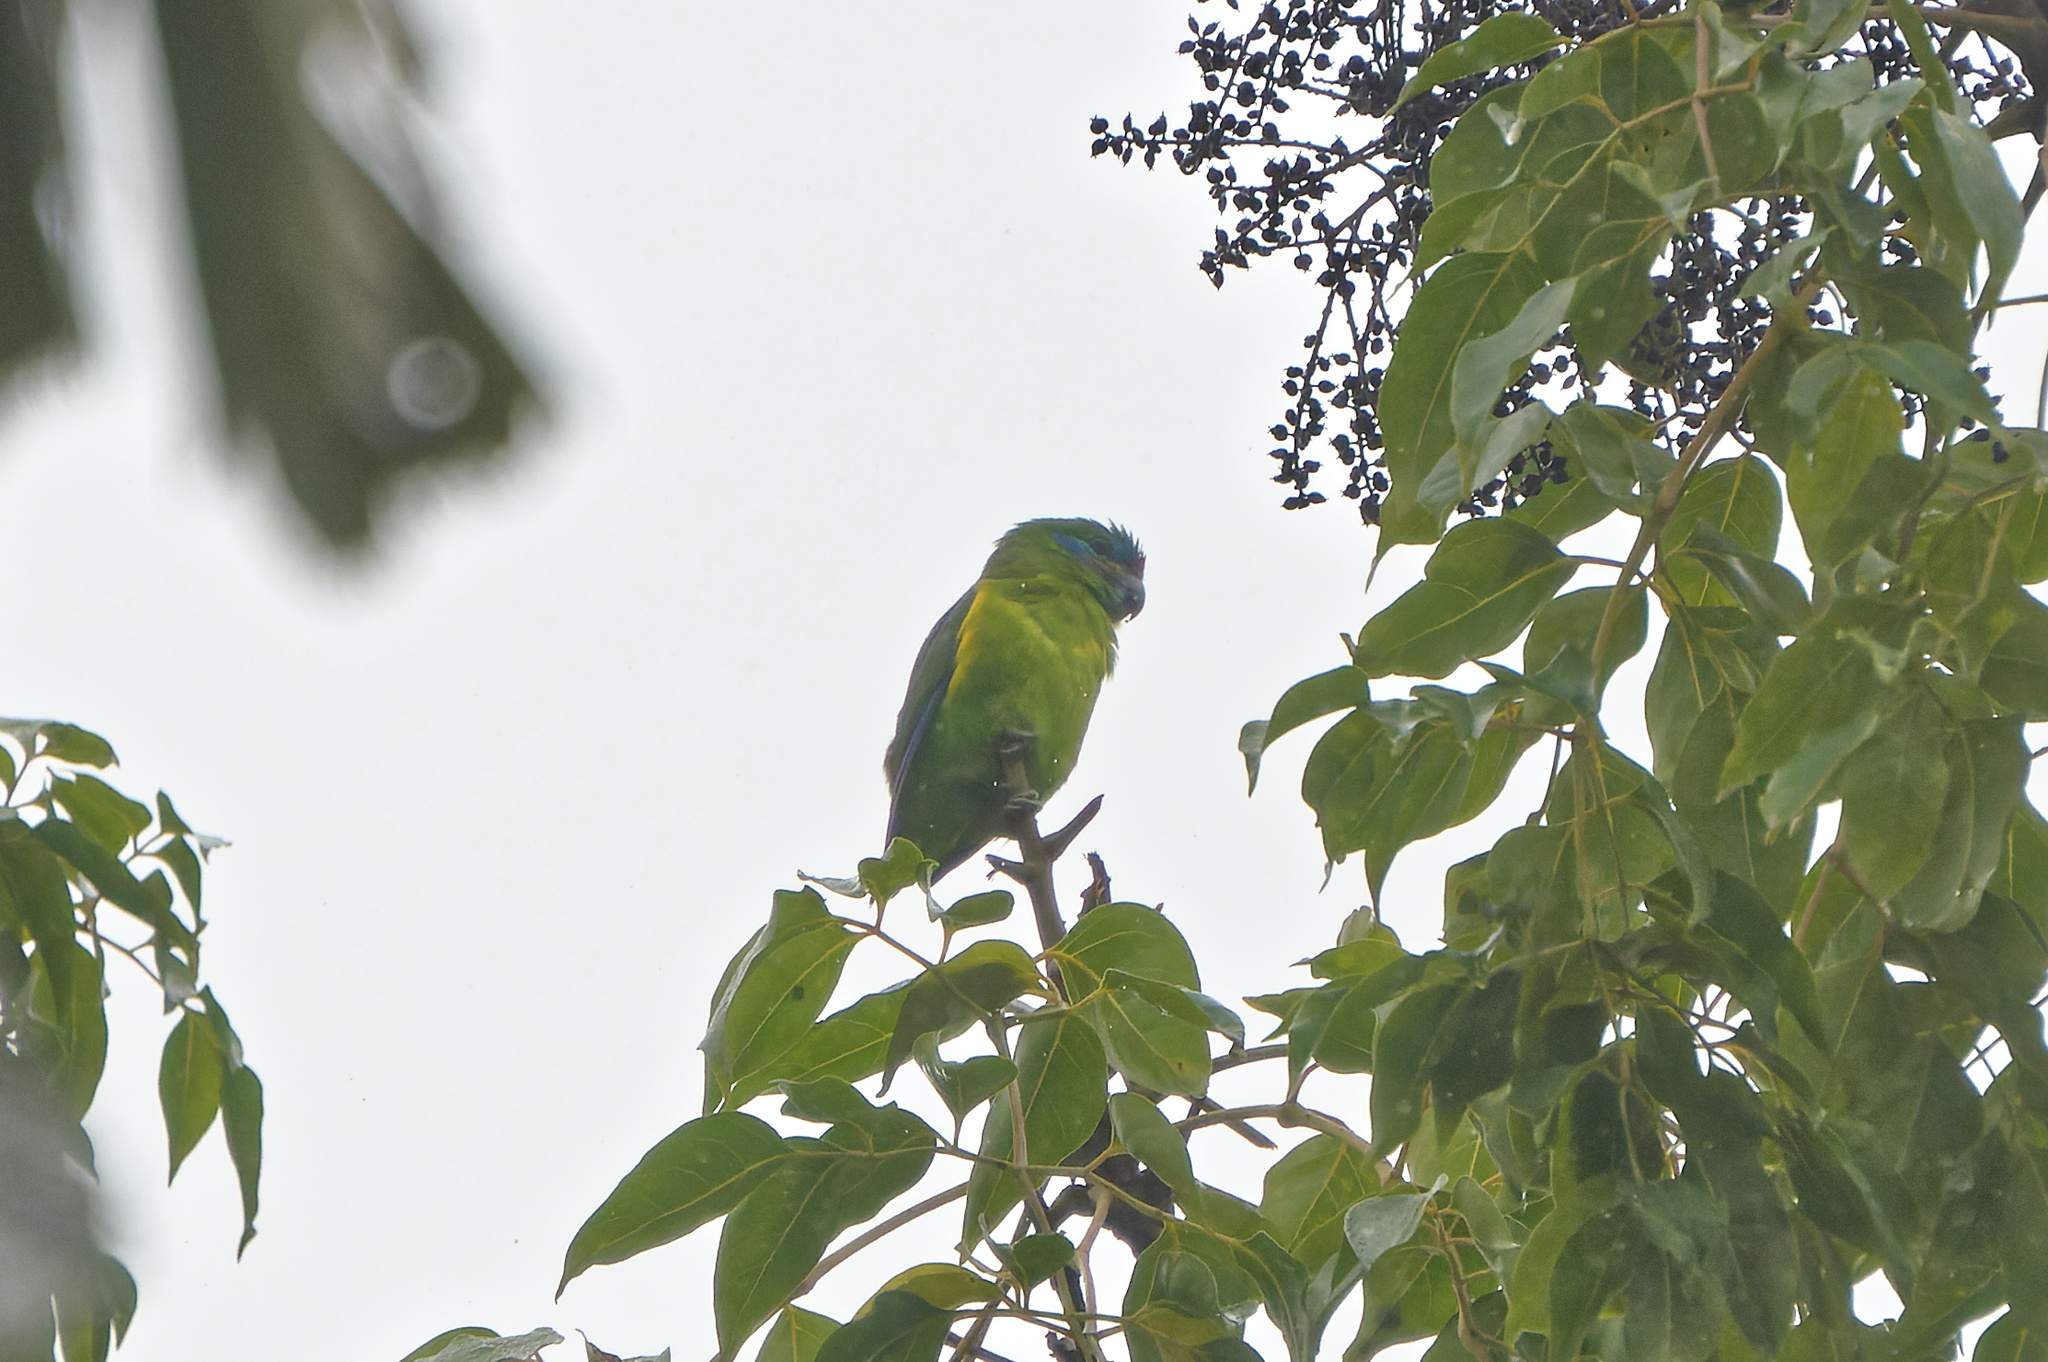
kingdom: Animalia
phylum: Chordata
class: Aves
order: Psittaciformes
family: Psittacidae
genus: Cyclopsitta
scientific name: Cyclopsitta diophthalma
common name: Double-eyed fig parrot
